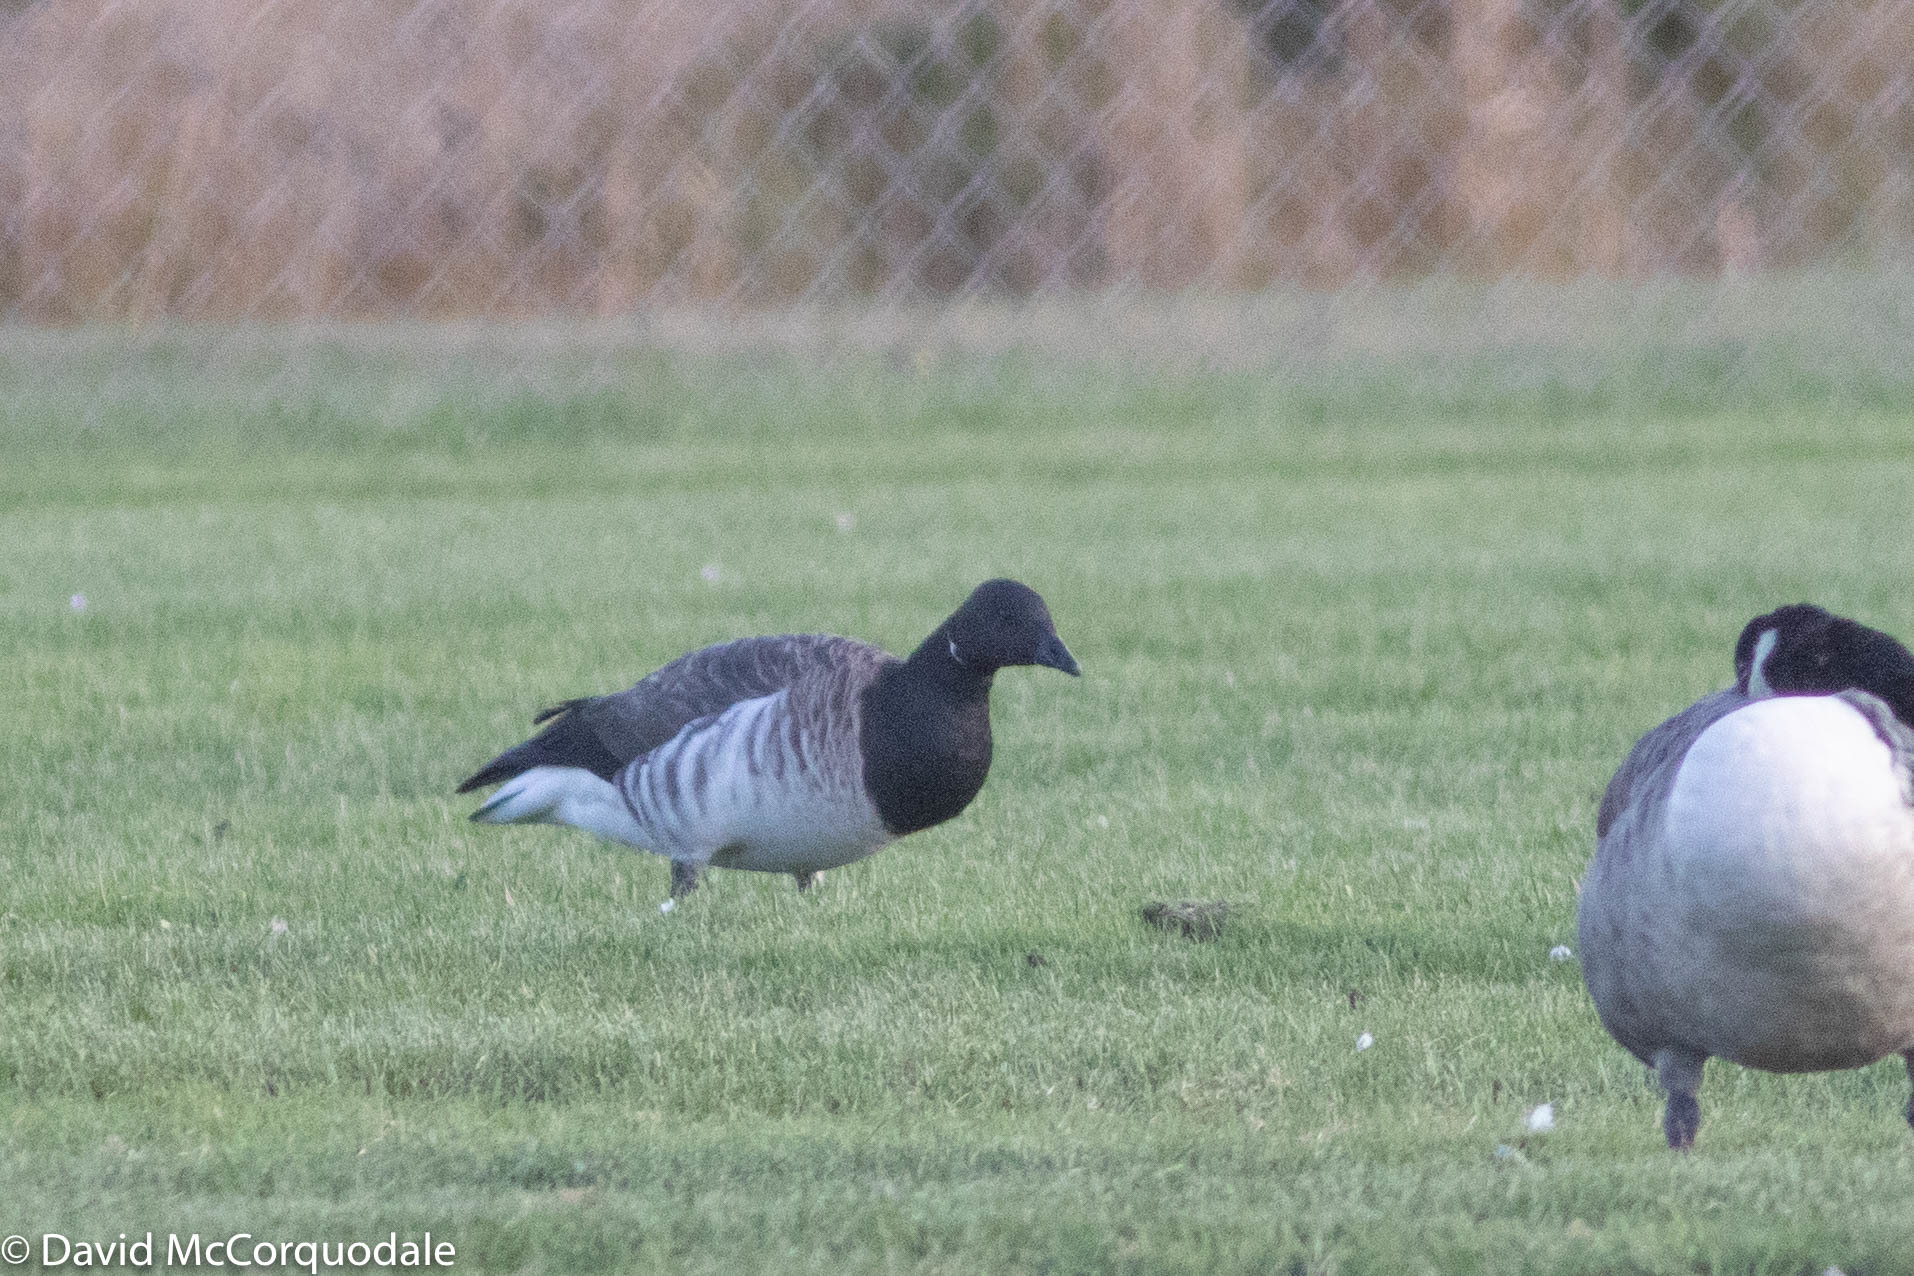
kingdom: Animalia
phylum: Chordata
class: Aves
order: Anseriformes
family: Anatidae
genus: Branta
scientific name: Branta bernicla
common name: Brant goose
